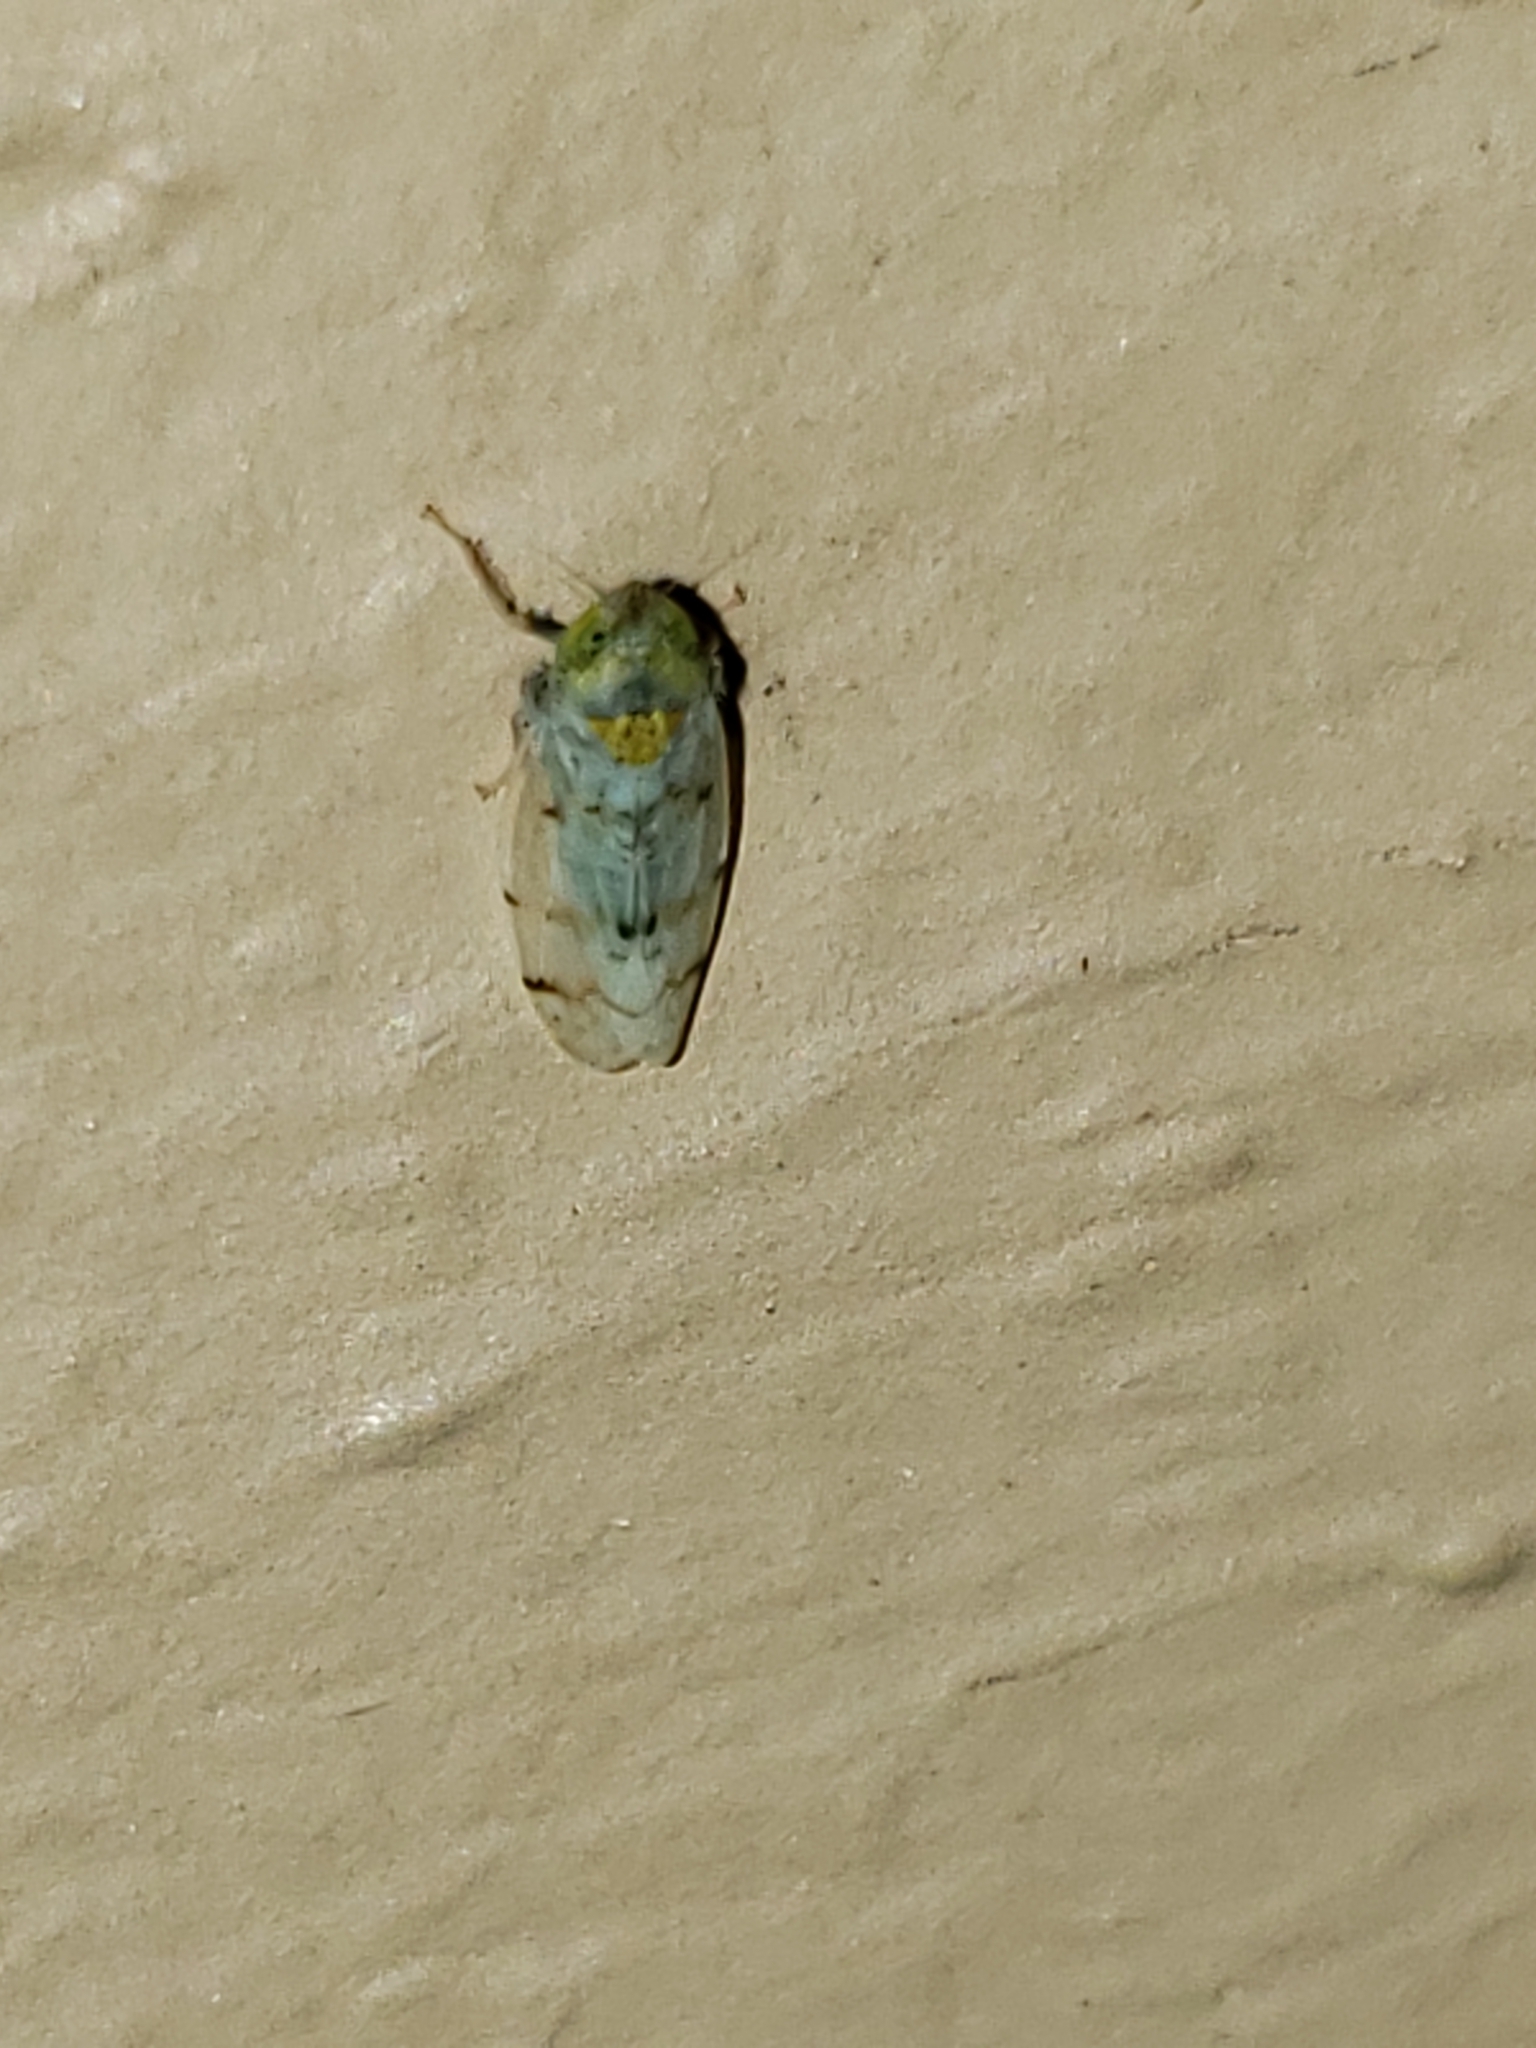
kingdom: Animalia
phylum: Arthropoda
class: Insecta
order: Hemiptera
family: Cicadellidae
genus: Japananus
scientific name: Japananus hyalinus
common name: The japanese maple leafhopper
